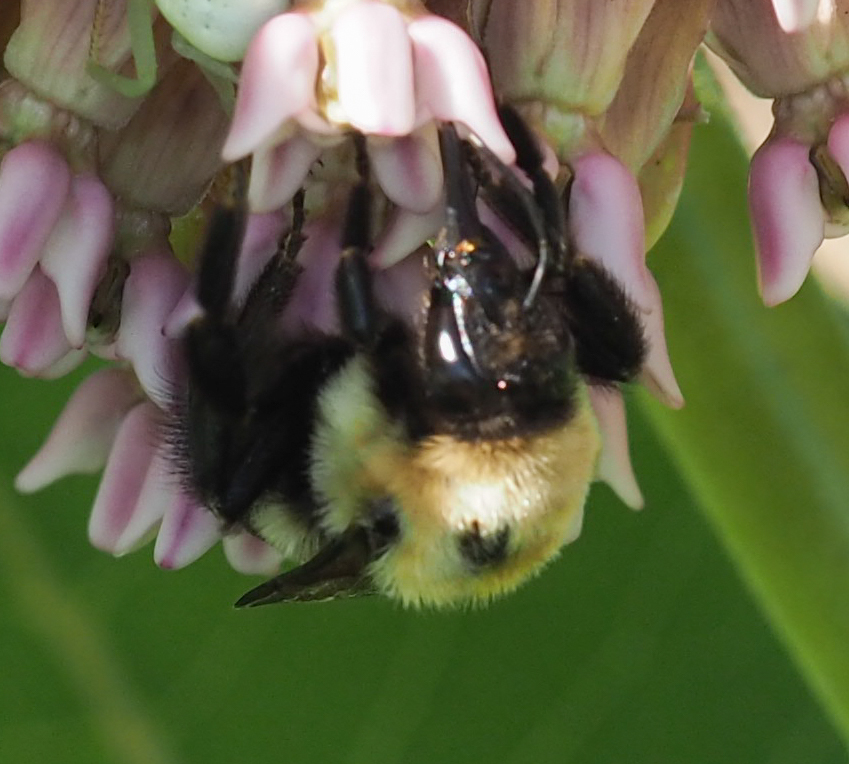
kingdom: Animalia
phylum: Arthropoda
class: Insecta
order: Hymenoptera
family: Apidae
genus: Bombus
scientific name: Bombus griseocollis
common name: Brown-belted bumble bee
